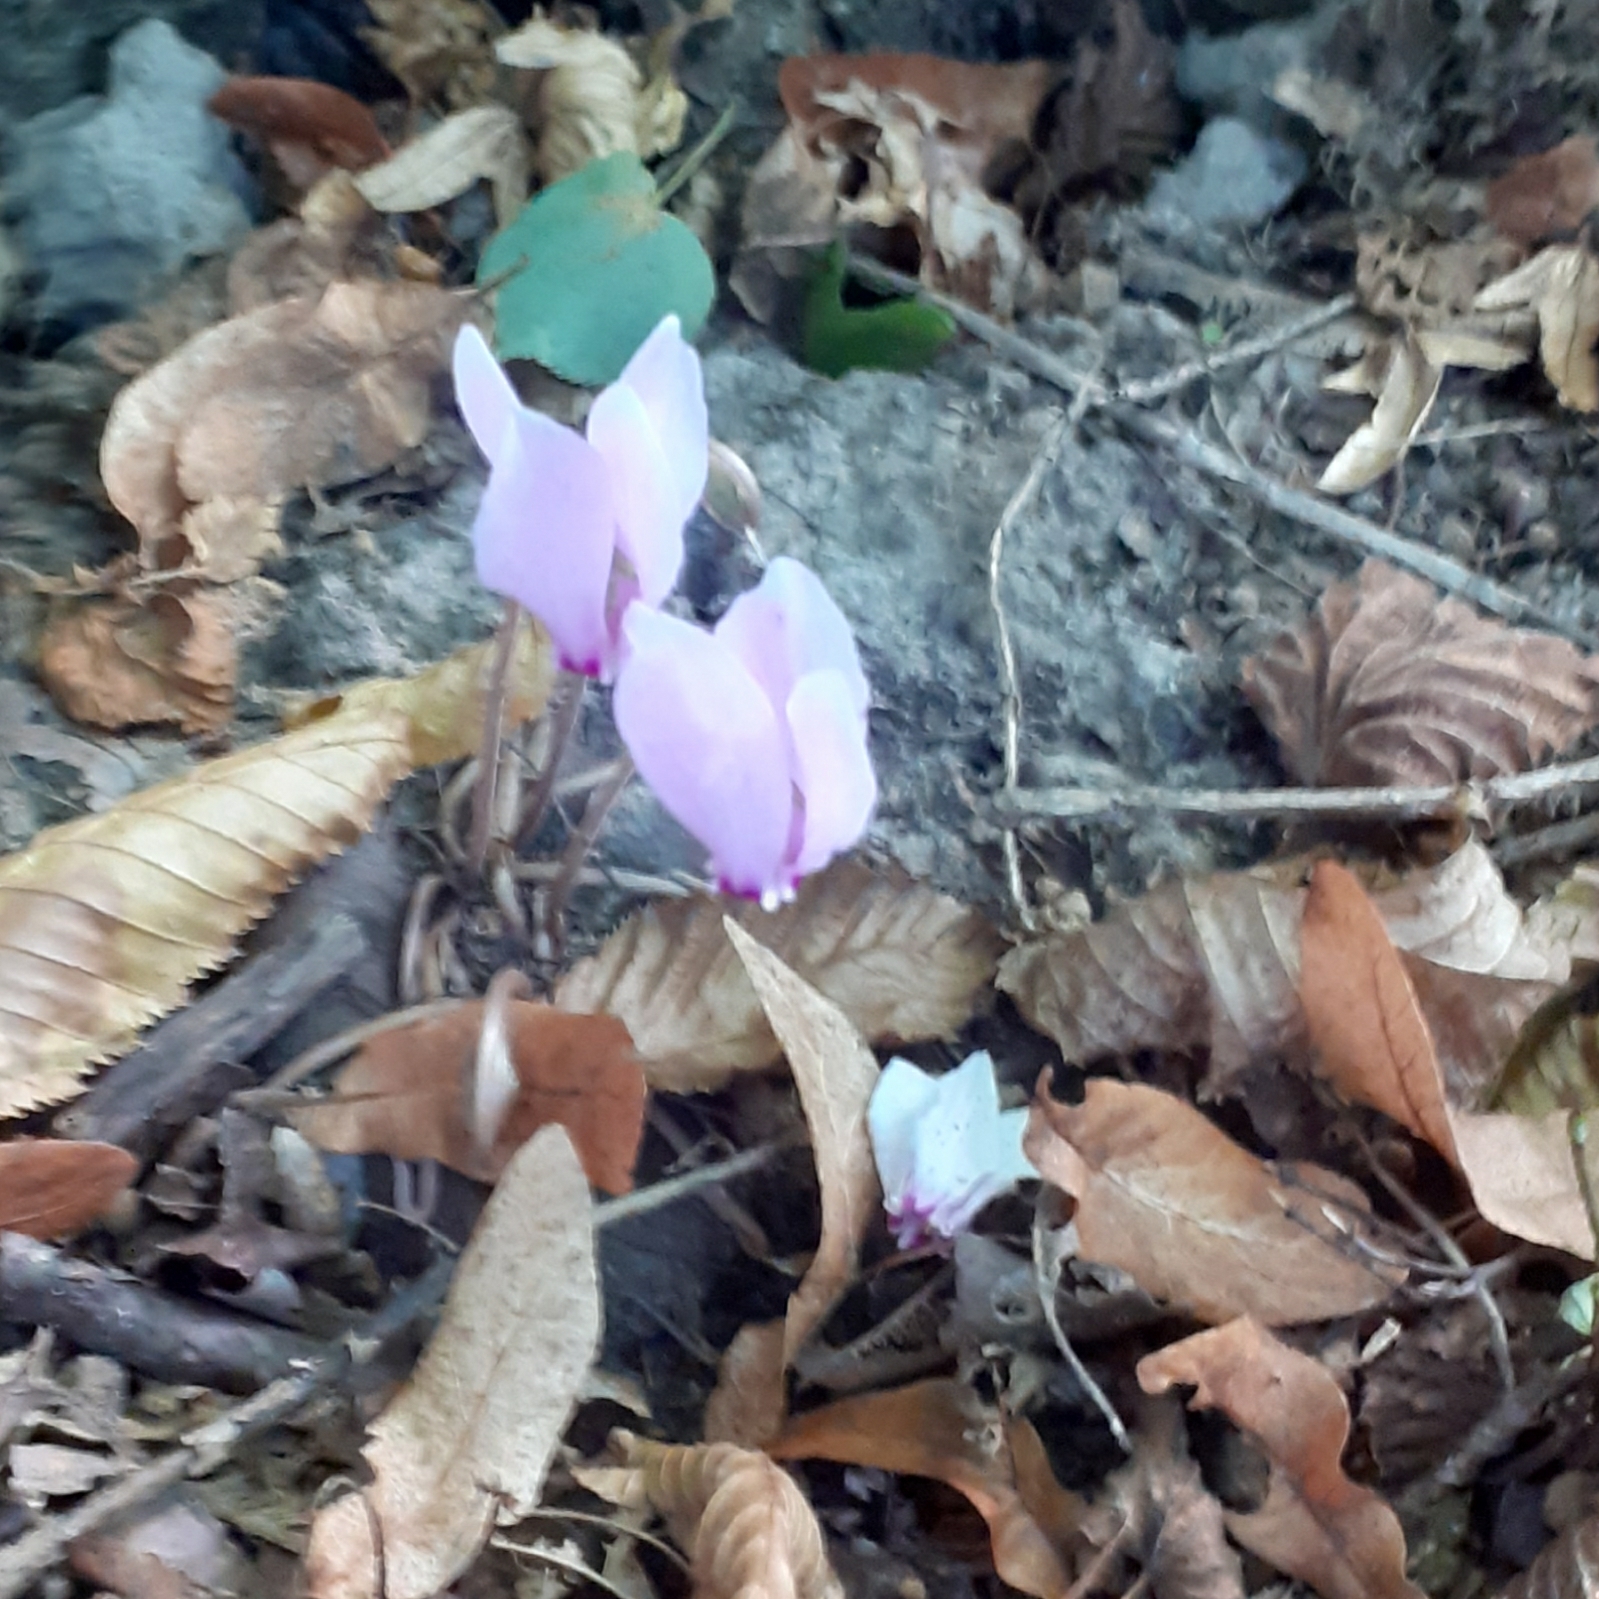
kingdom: Plantae
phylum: Tracheophyta
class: Magnoliopsida
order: Ericales
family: Primulaceae
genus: Cyclamen
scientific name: Cyclamen hederifolium
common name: Sowbread
